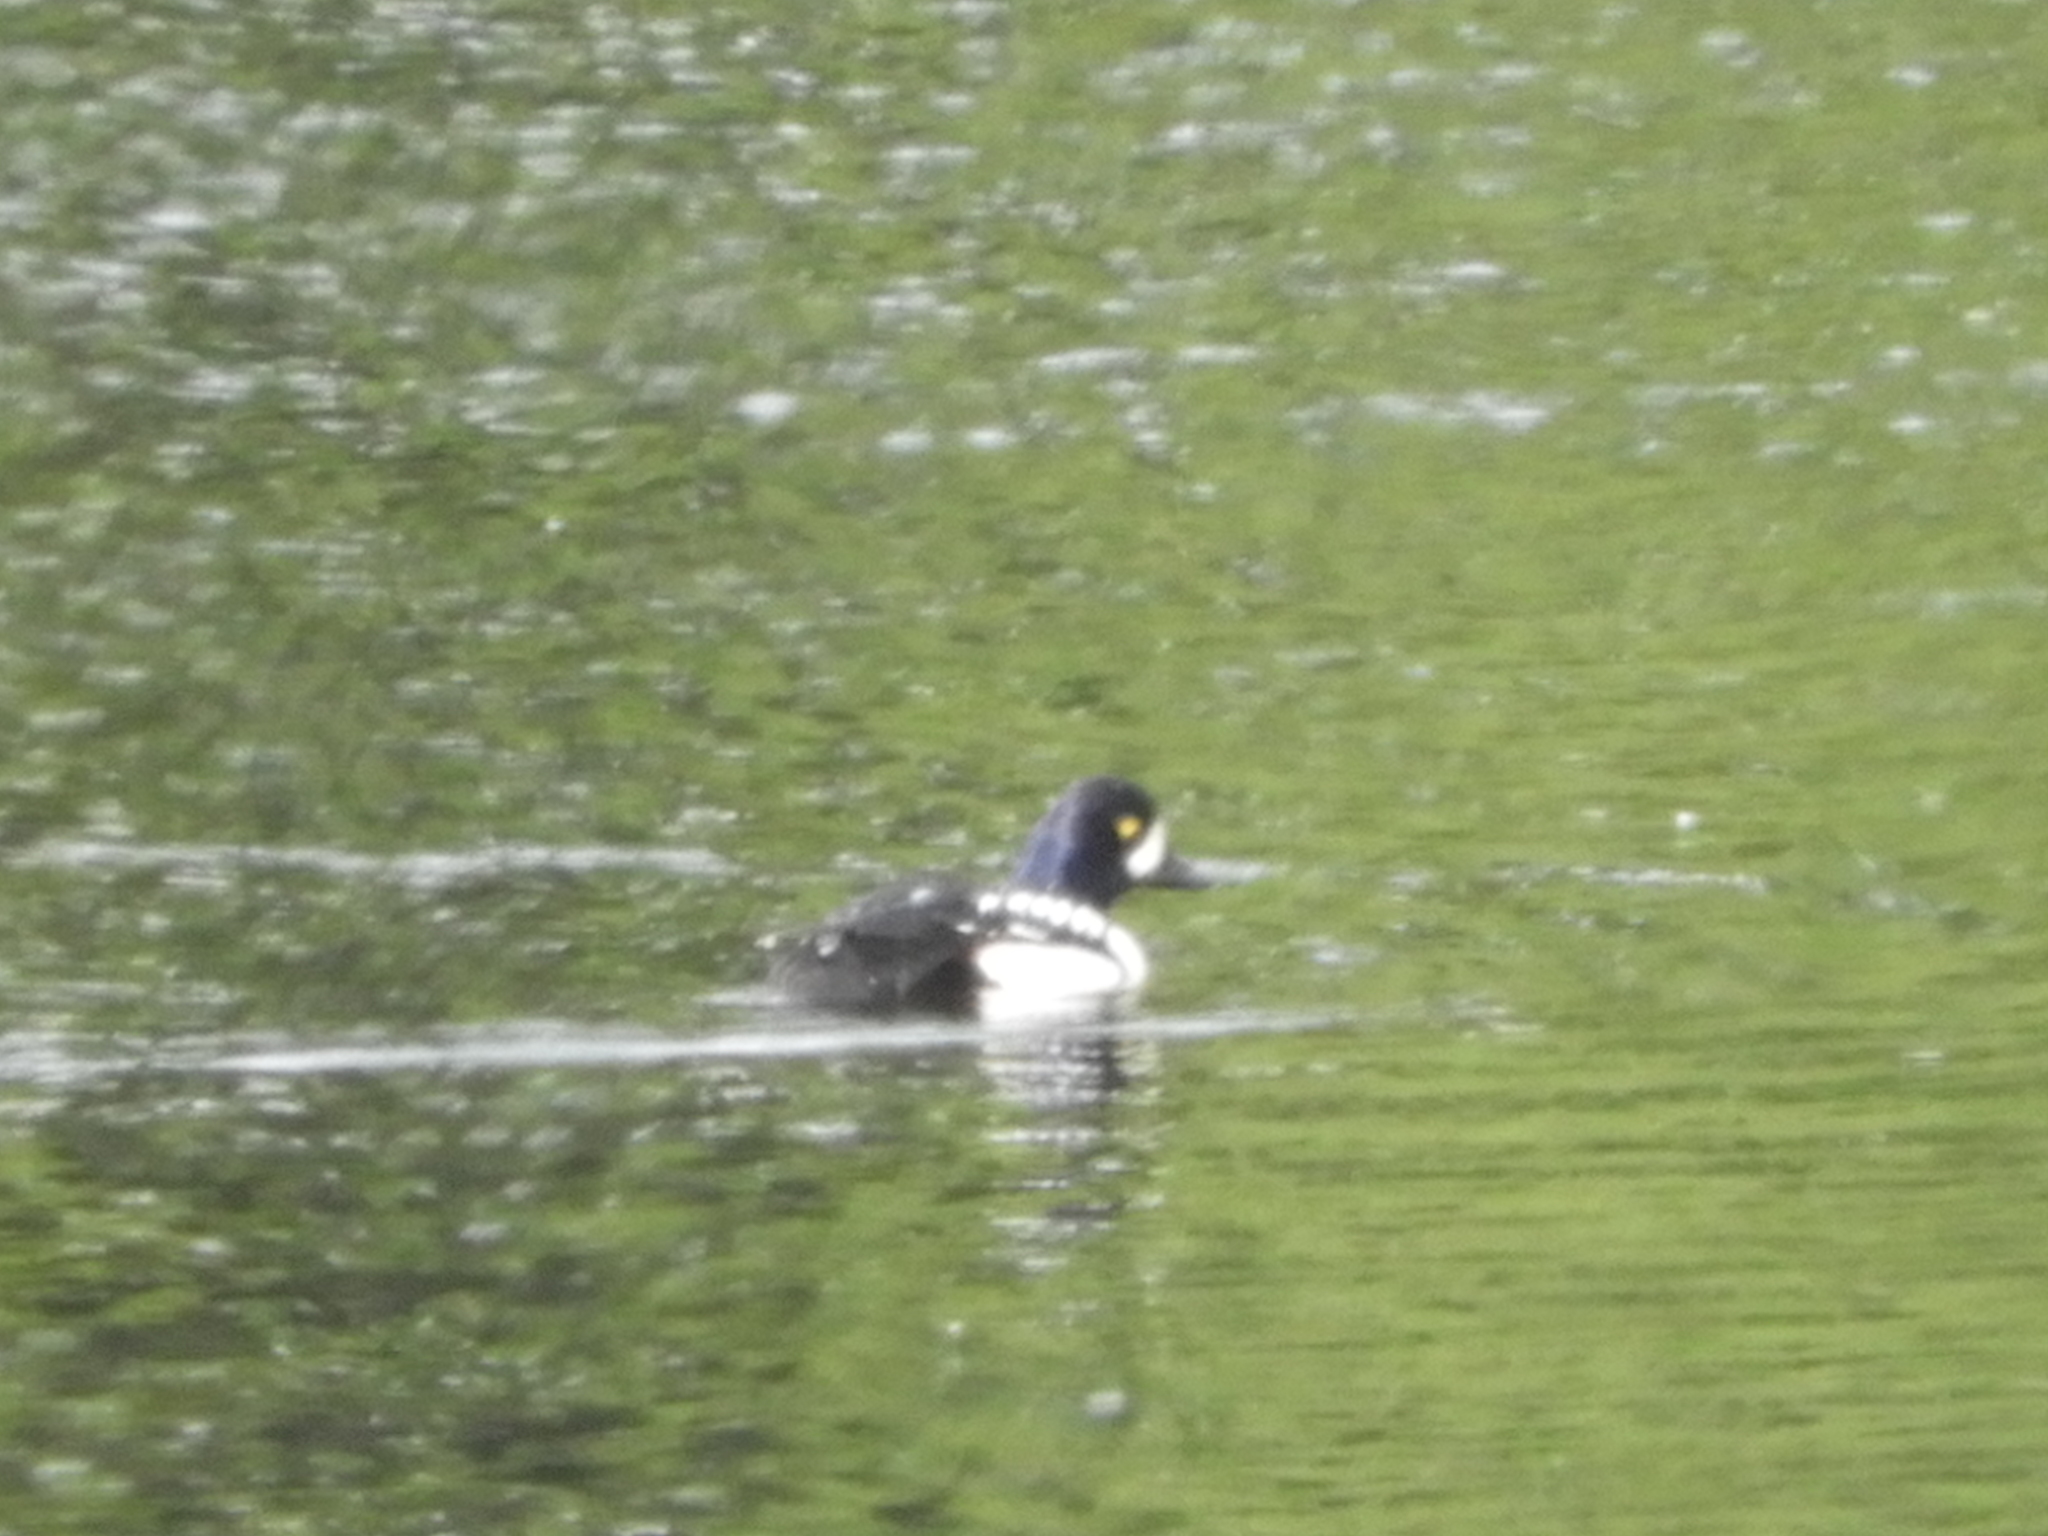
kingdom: Animalia
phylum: Chordata
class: Aves
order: Anseriformes
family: Anatidae
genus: Bucephala
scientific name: Bucephala islandica
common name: Barrow's goldeneye
